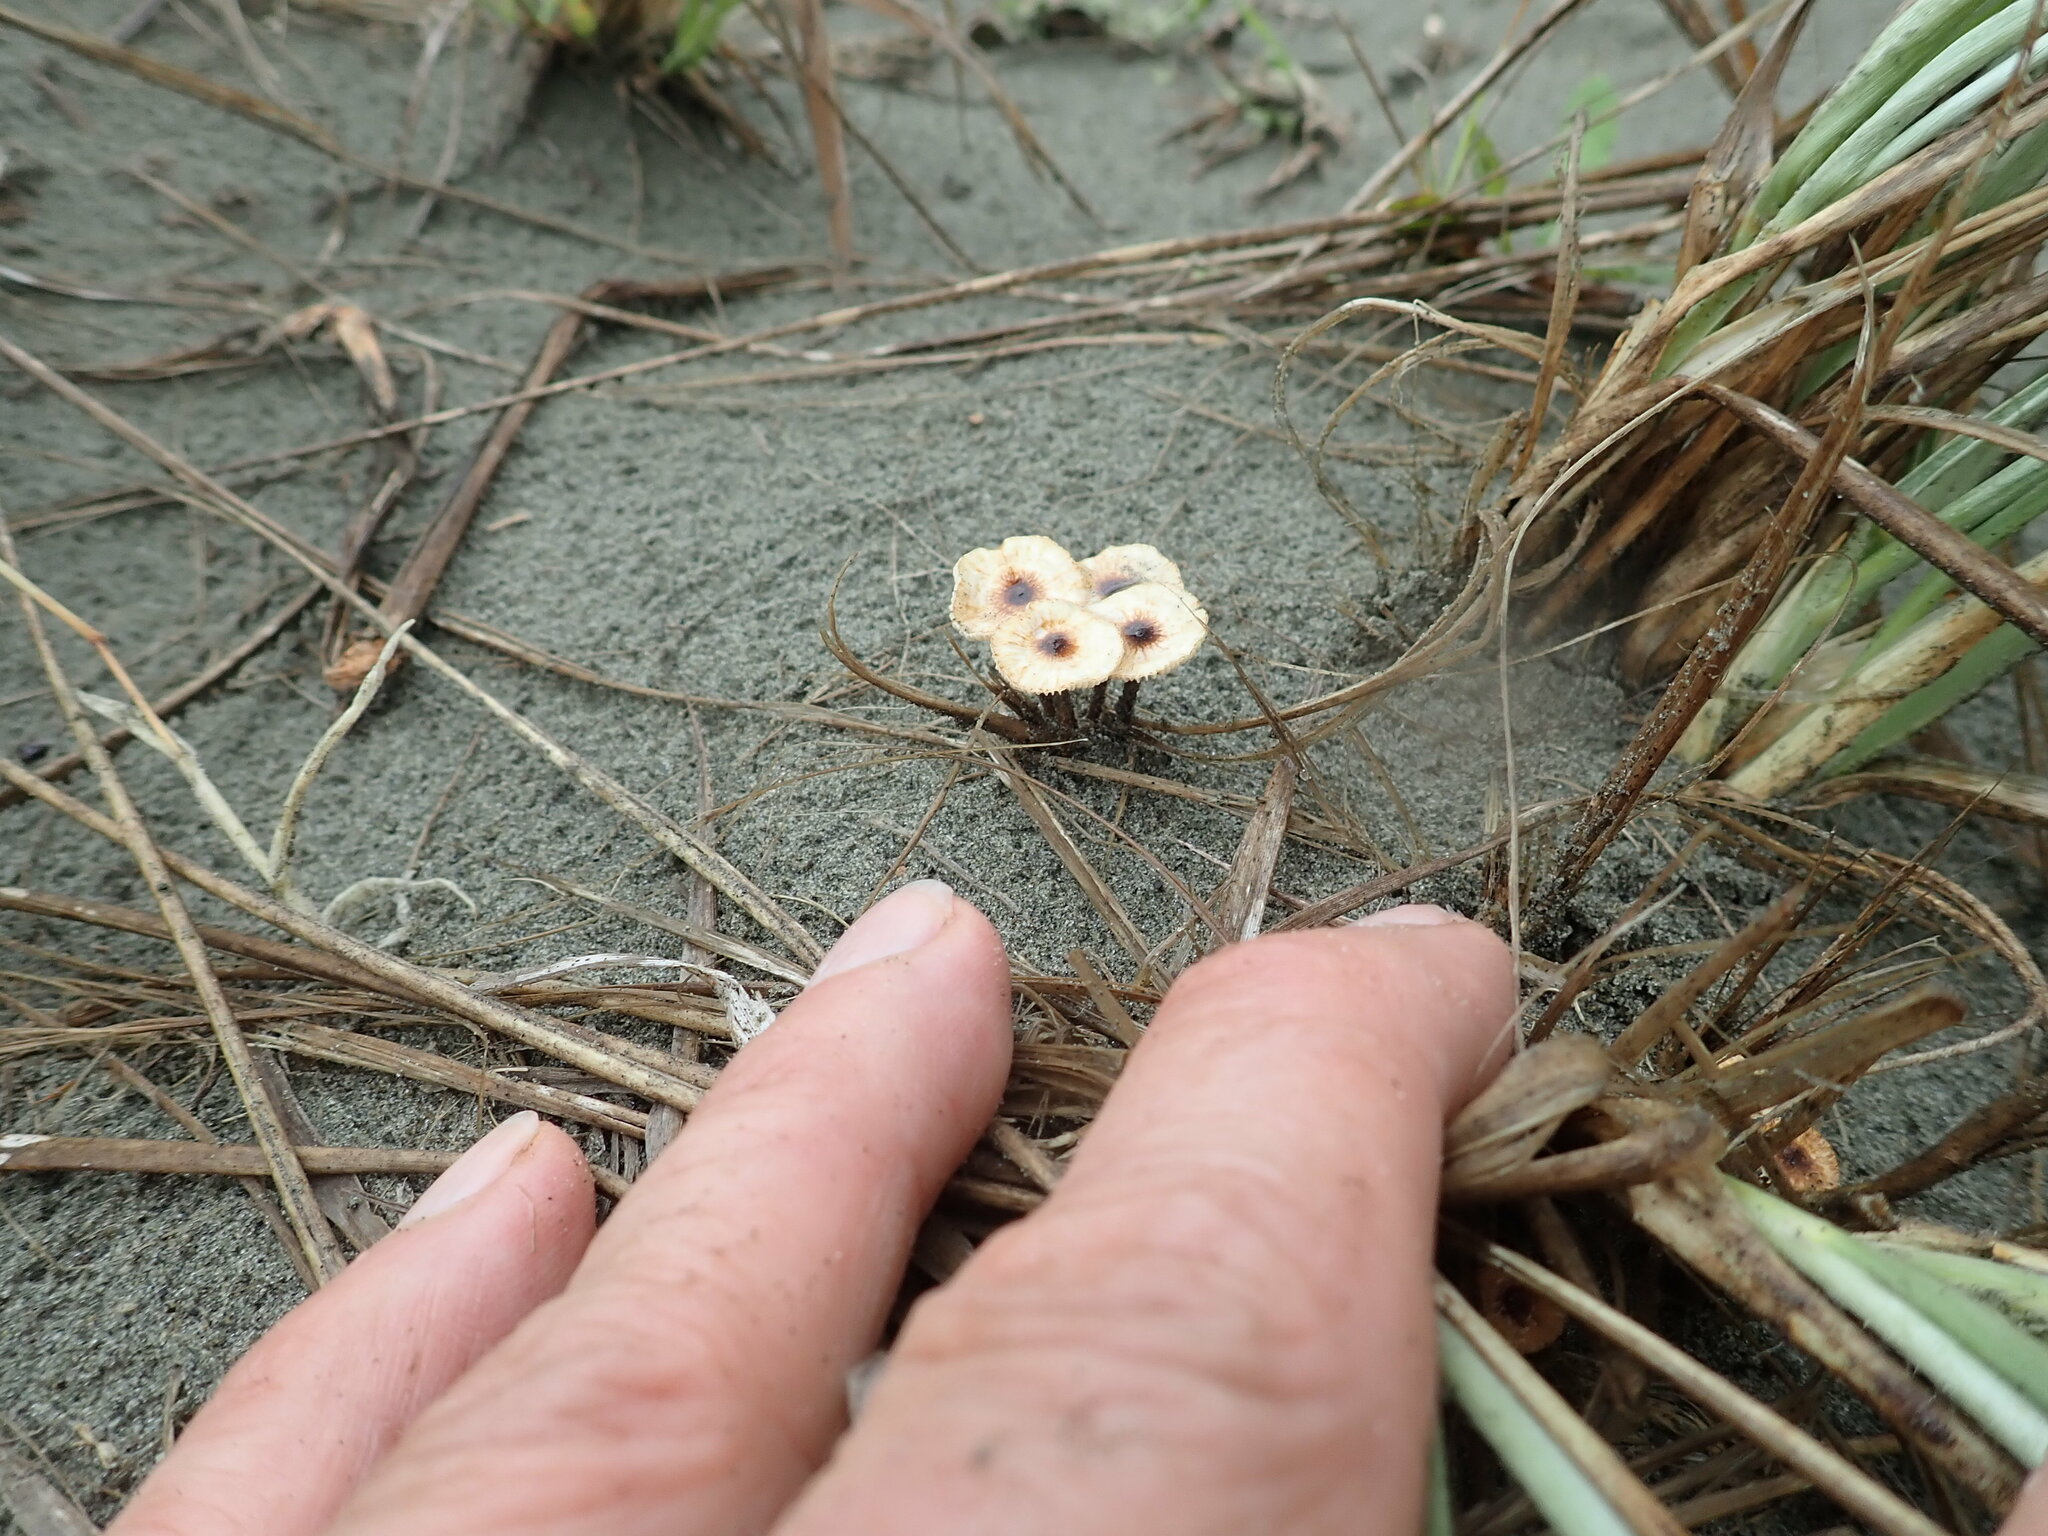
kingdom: Fungi
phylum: Basidiomycota
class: Agaricomycetes
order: Agaricales
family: Marasmiaceae
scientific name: Marasmiaceae
